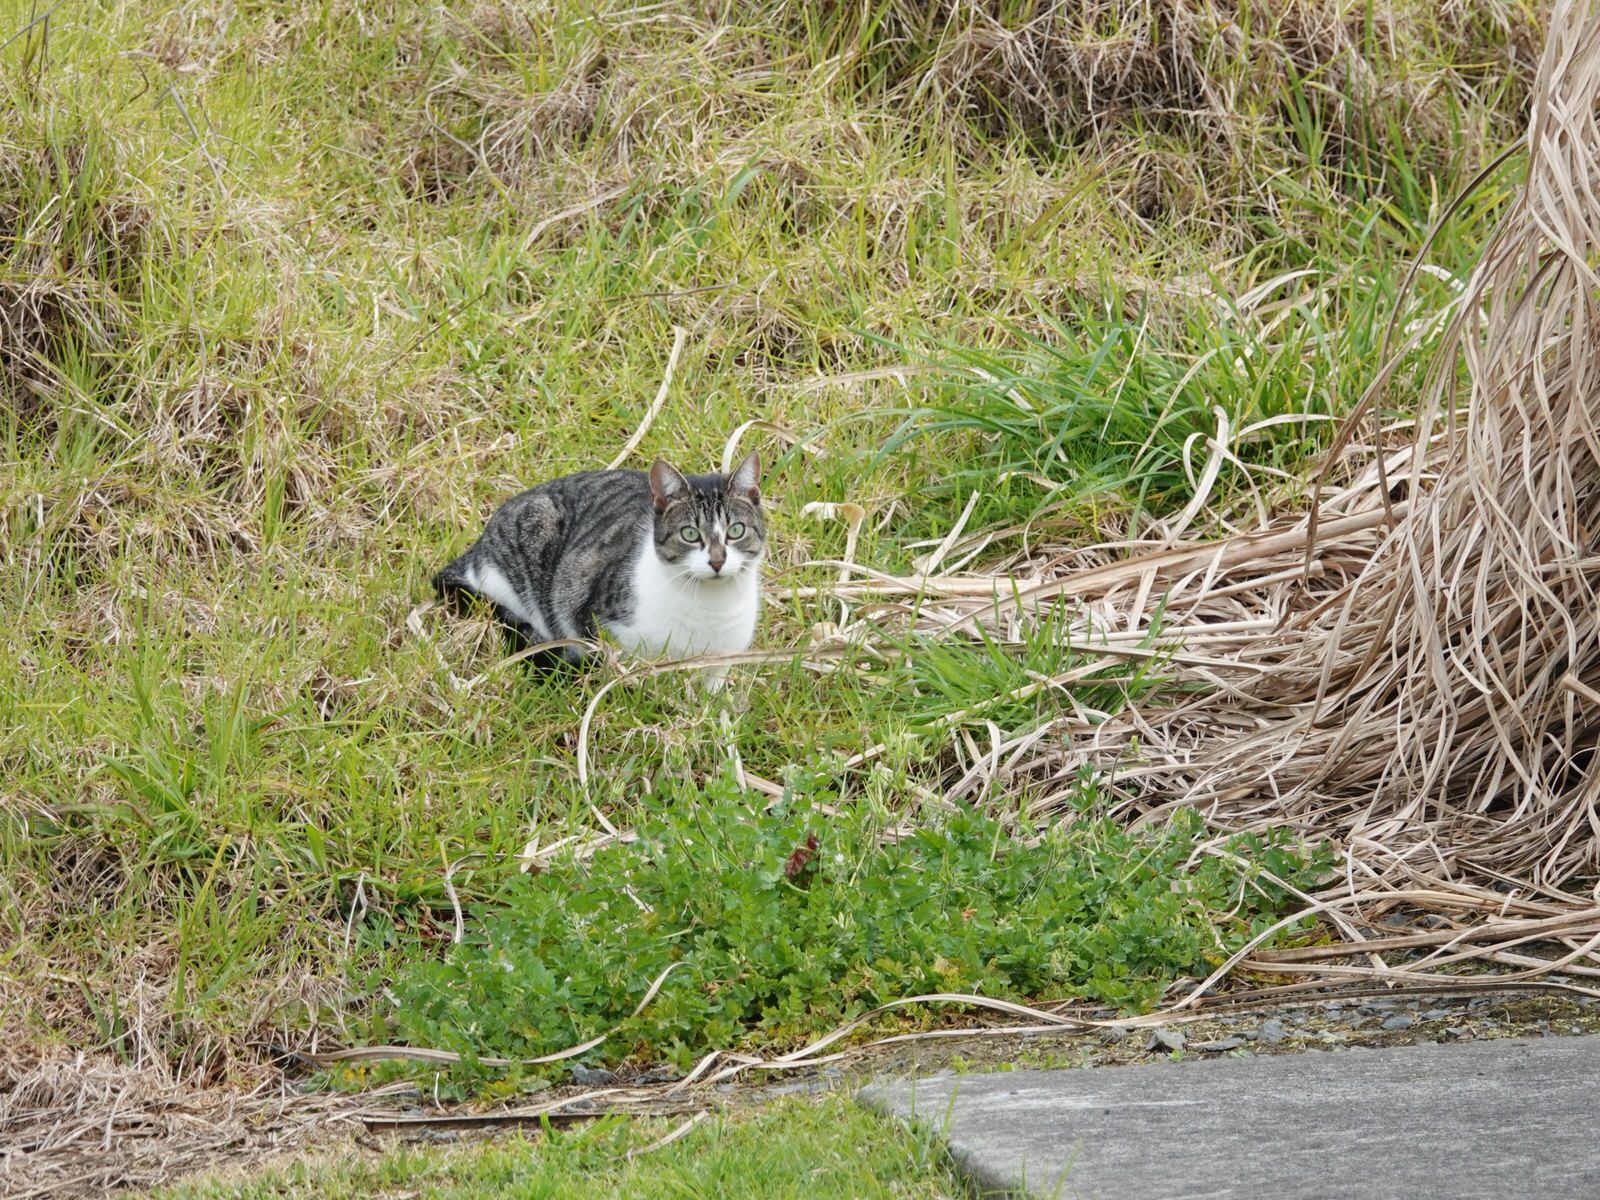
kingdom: Animalia
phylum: Chordata
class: Mammalia
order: Carnivora
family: Felidae
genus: Felis
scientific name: Felis catus
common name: Domestic cat
